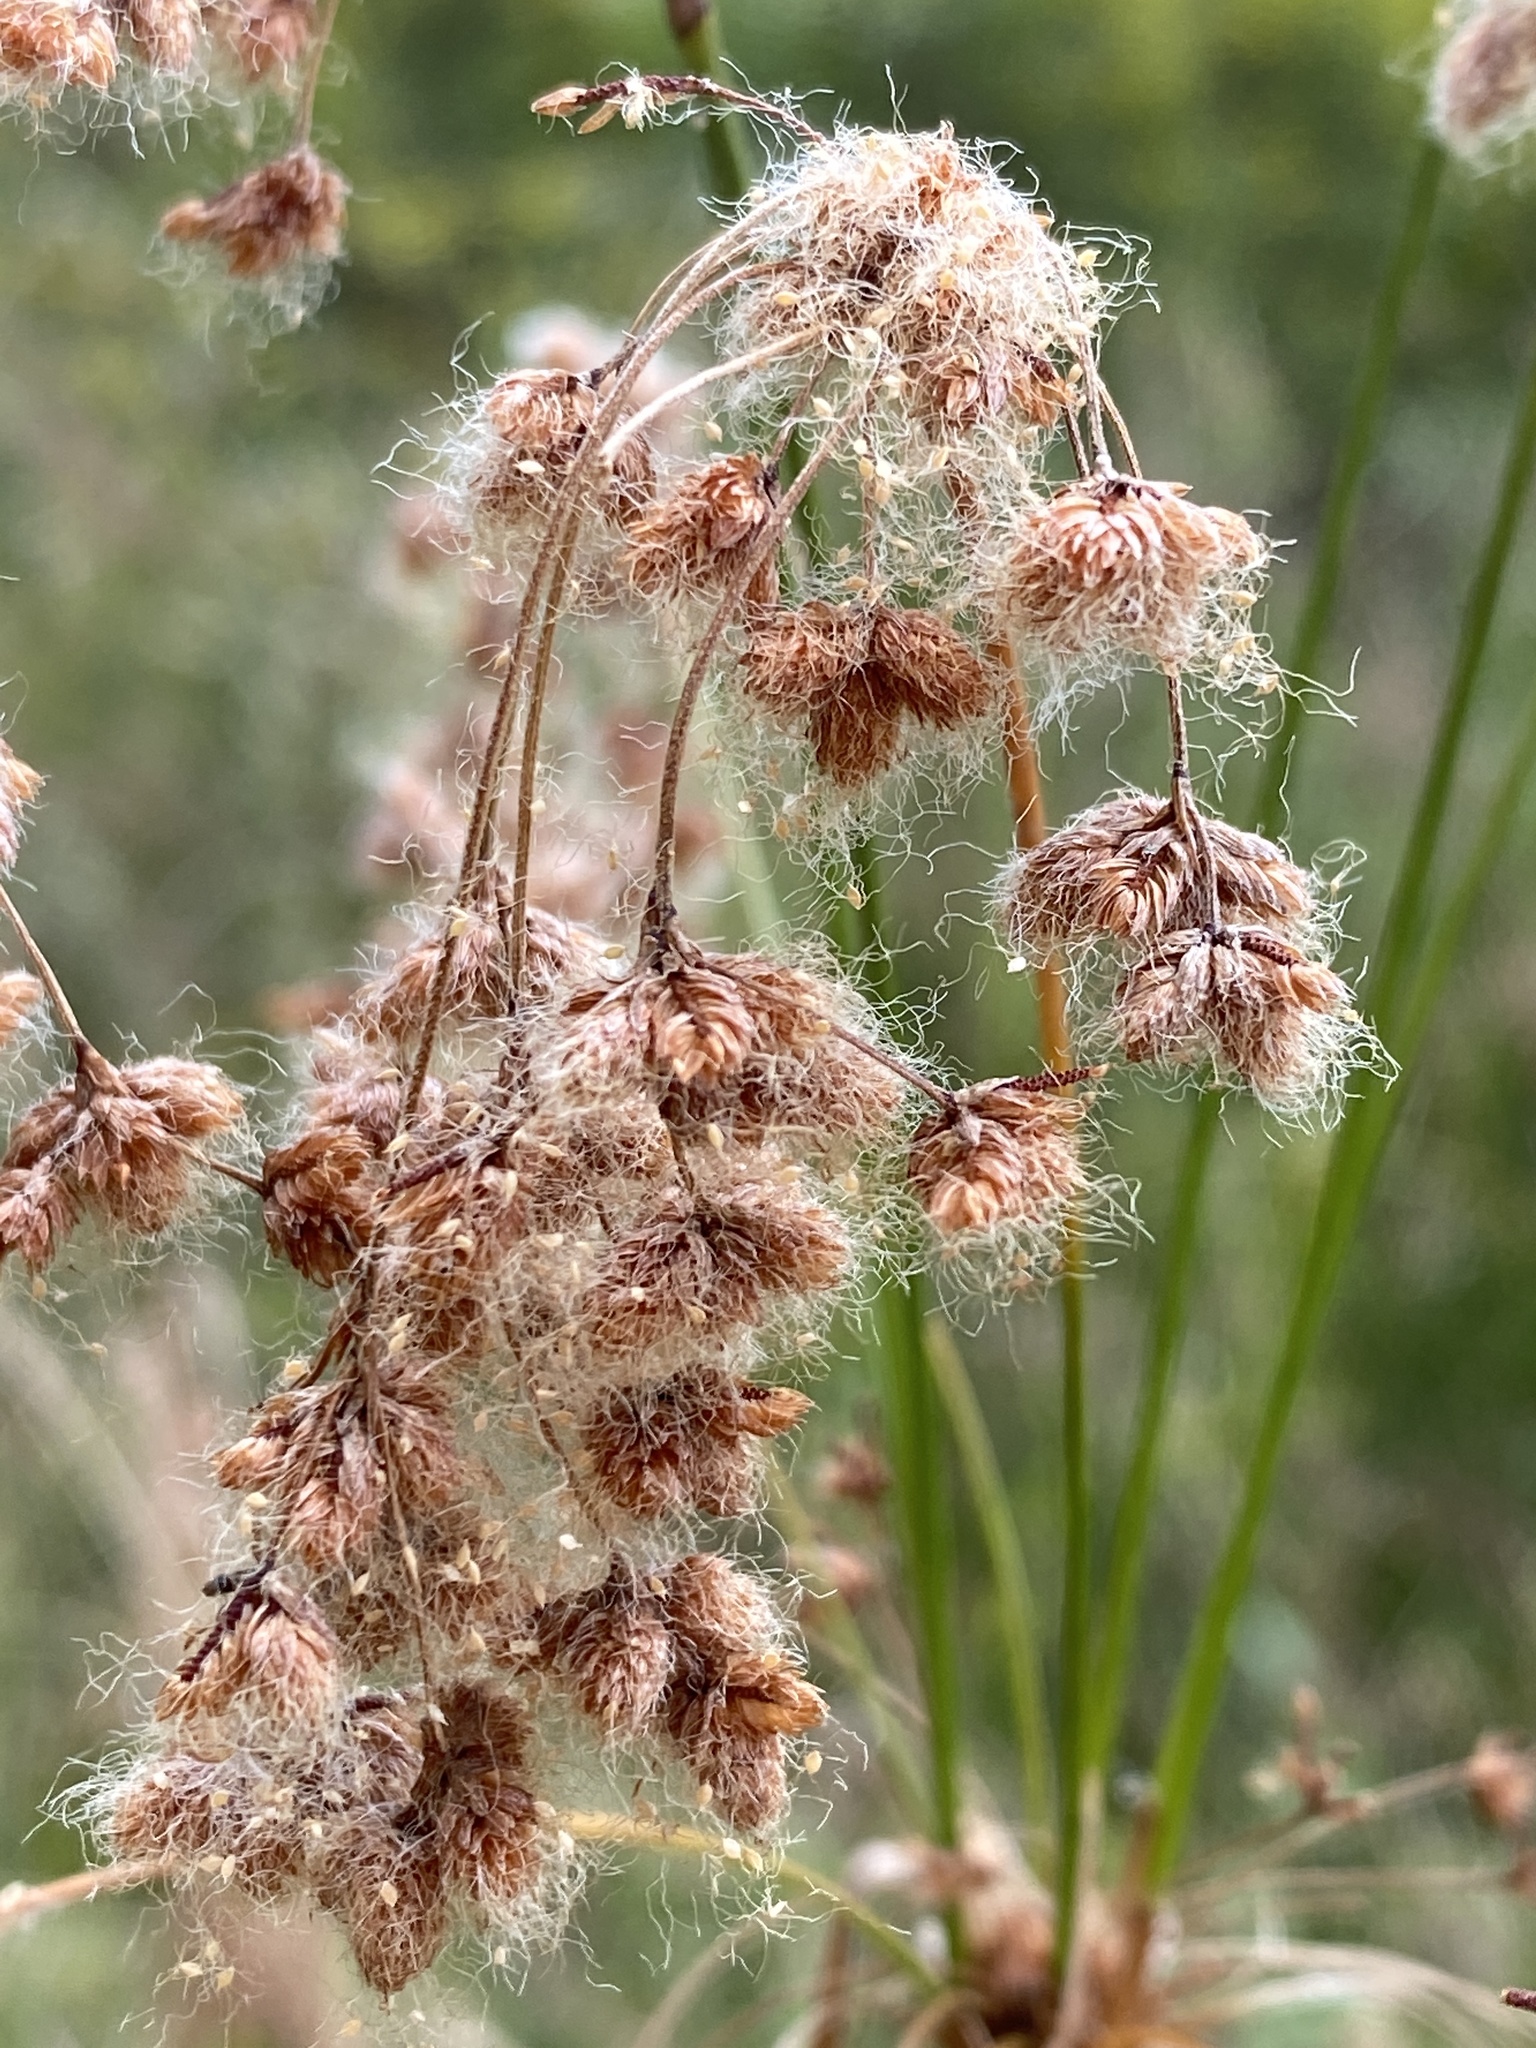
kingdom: Plantae
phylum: Tracheophyta
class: Liliopsida
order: Poales
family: Cyperaceae
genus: Scirpus
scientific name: Scirpus cyperinus
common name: Black-sheathed bulrush
